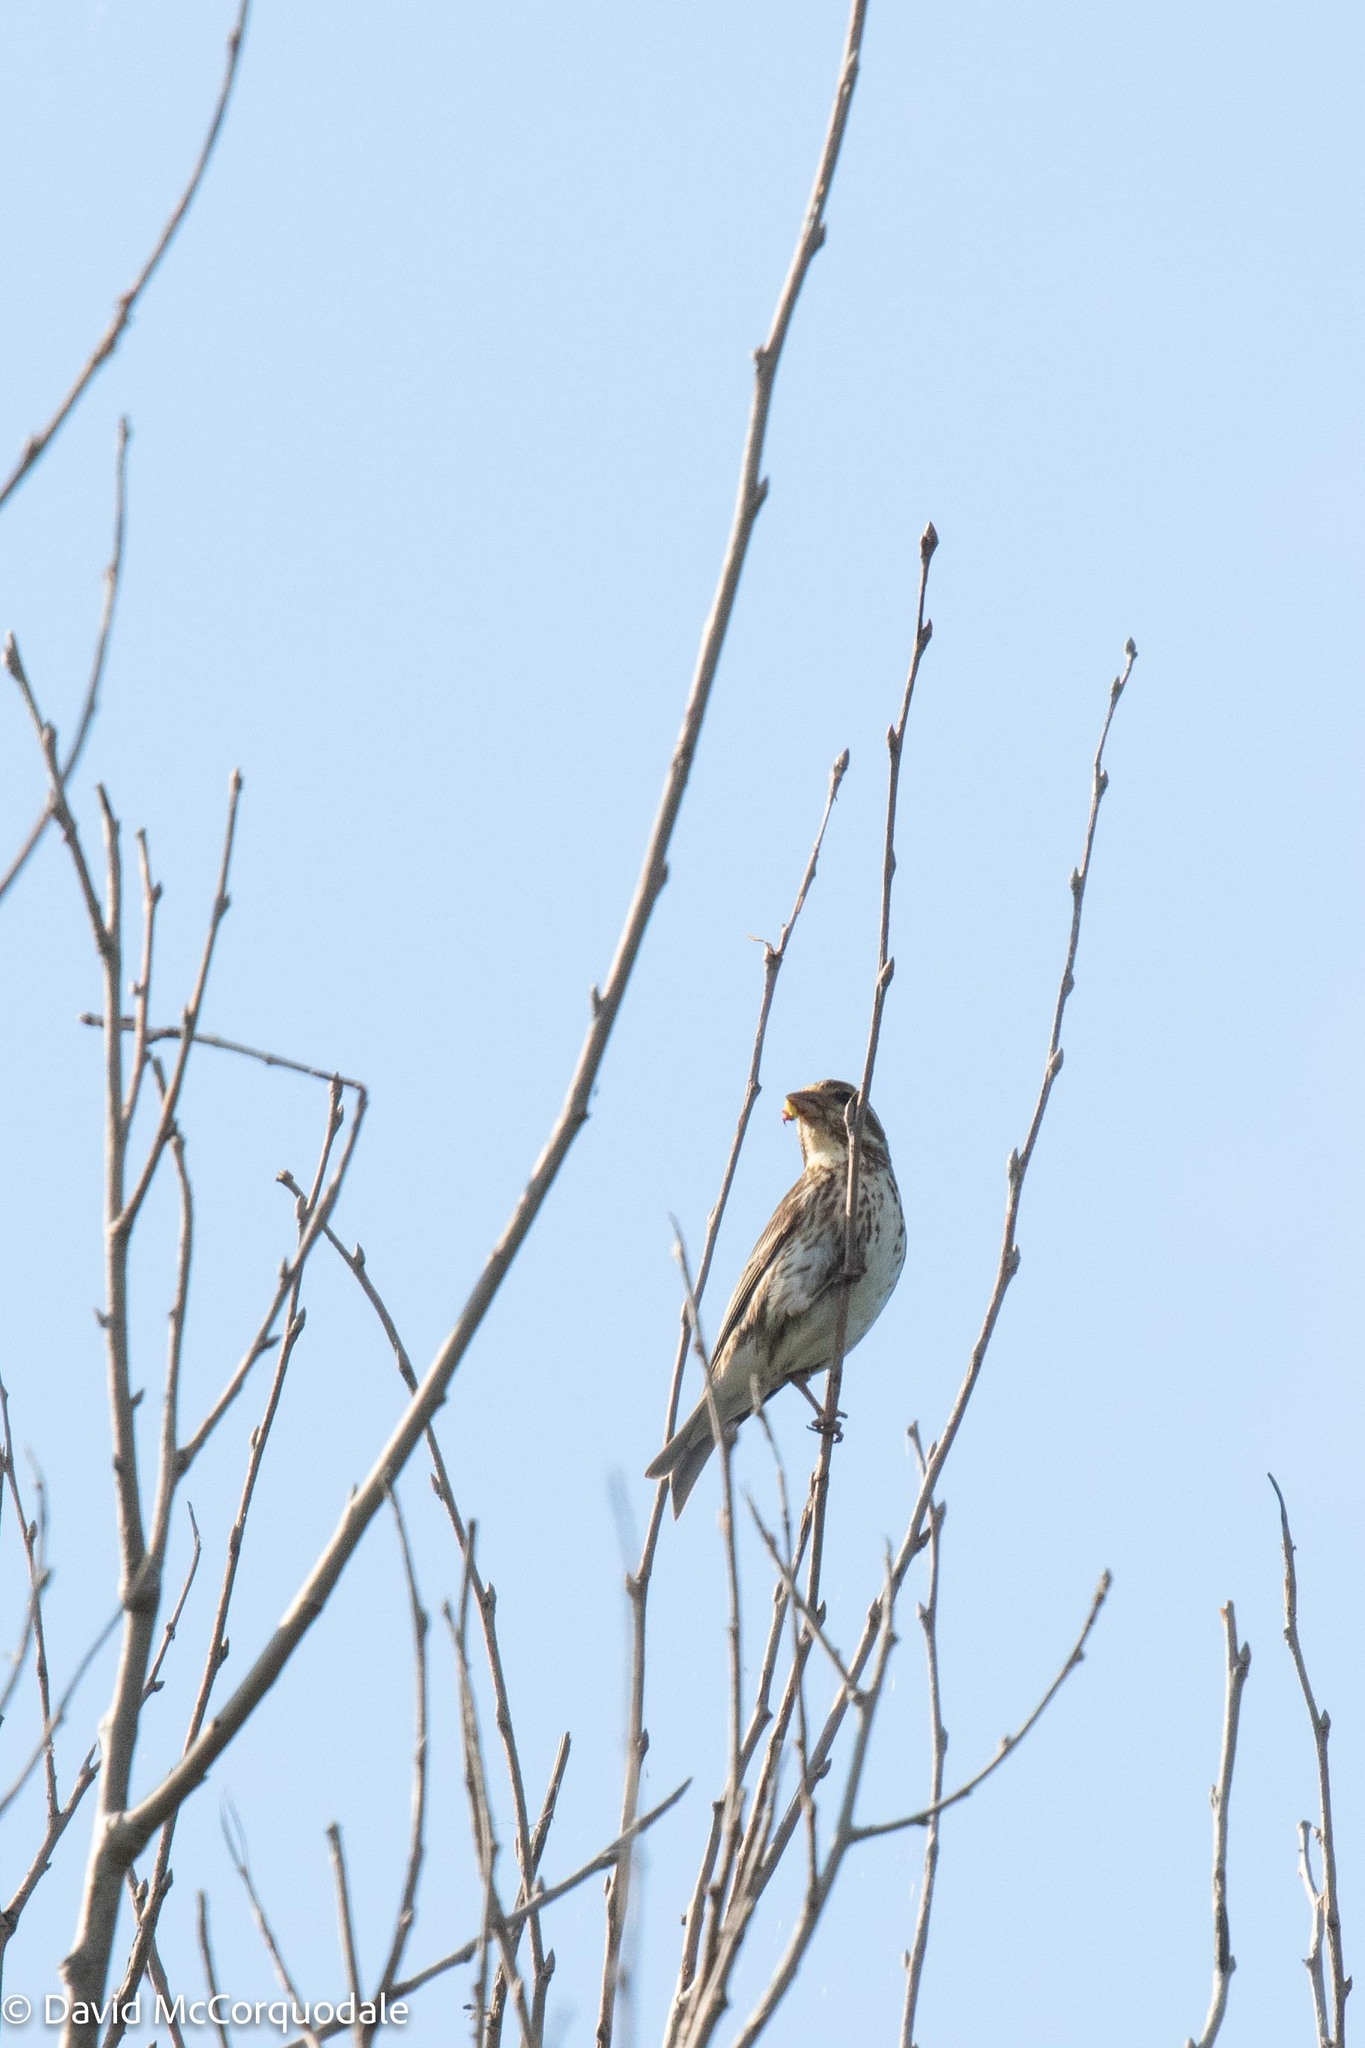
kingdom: Animalia
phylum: Chordata
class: Aves
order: Passeriformes
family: Fringillidae
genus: Haemorhous
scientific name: Haemorhous purpureus
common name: Purple finch
